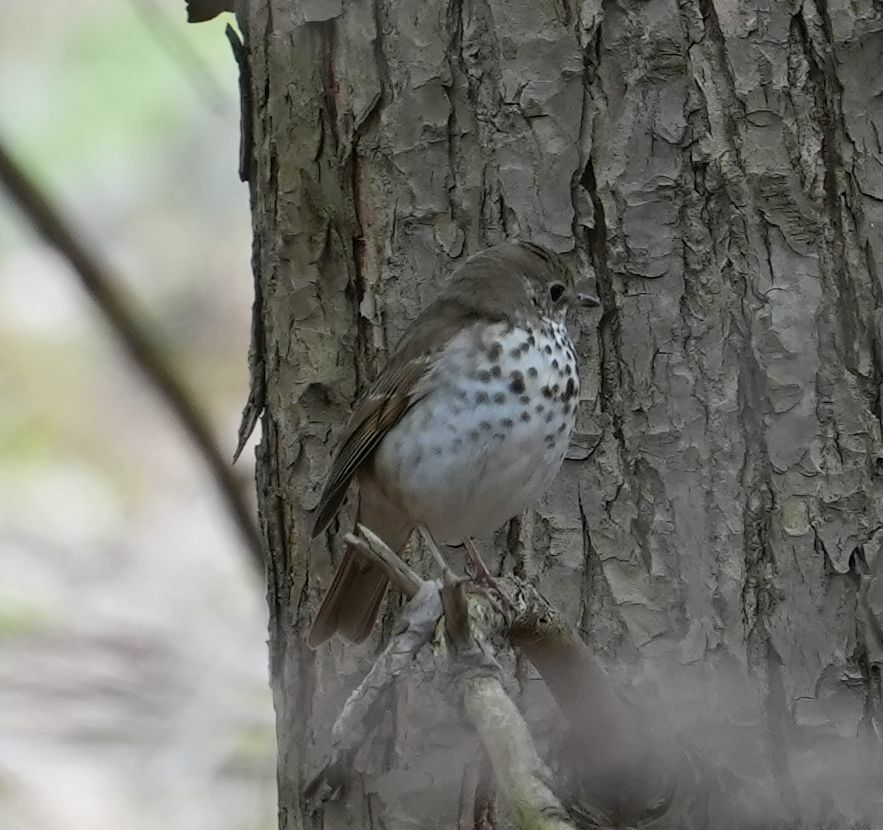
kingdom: Animalia
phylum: Chordata
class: Aves
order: Passeriformes
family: Turdidae
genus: Catharus
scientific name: Catharus guttatus
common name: Hermit thrush
